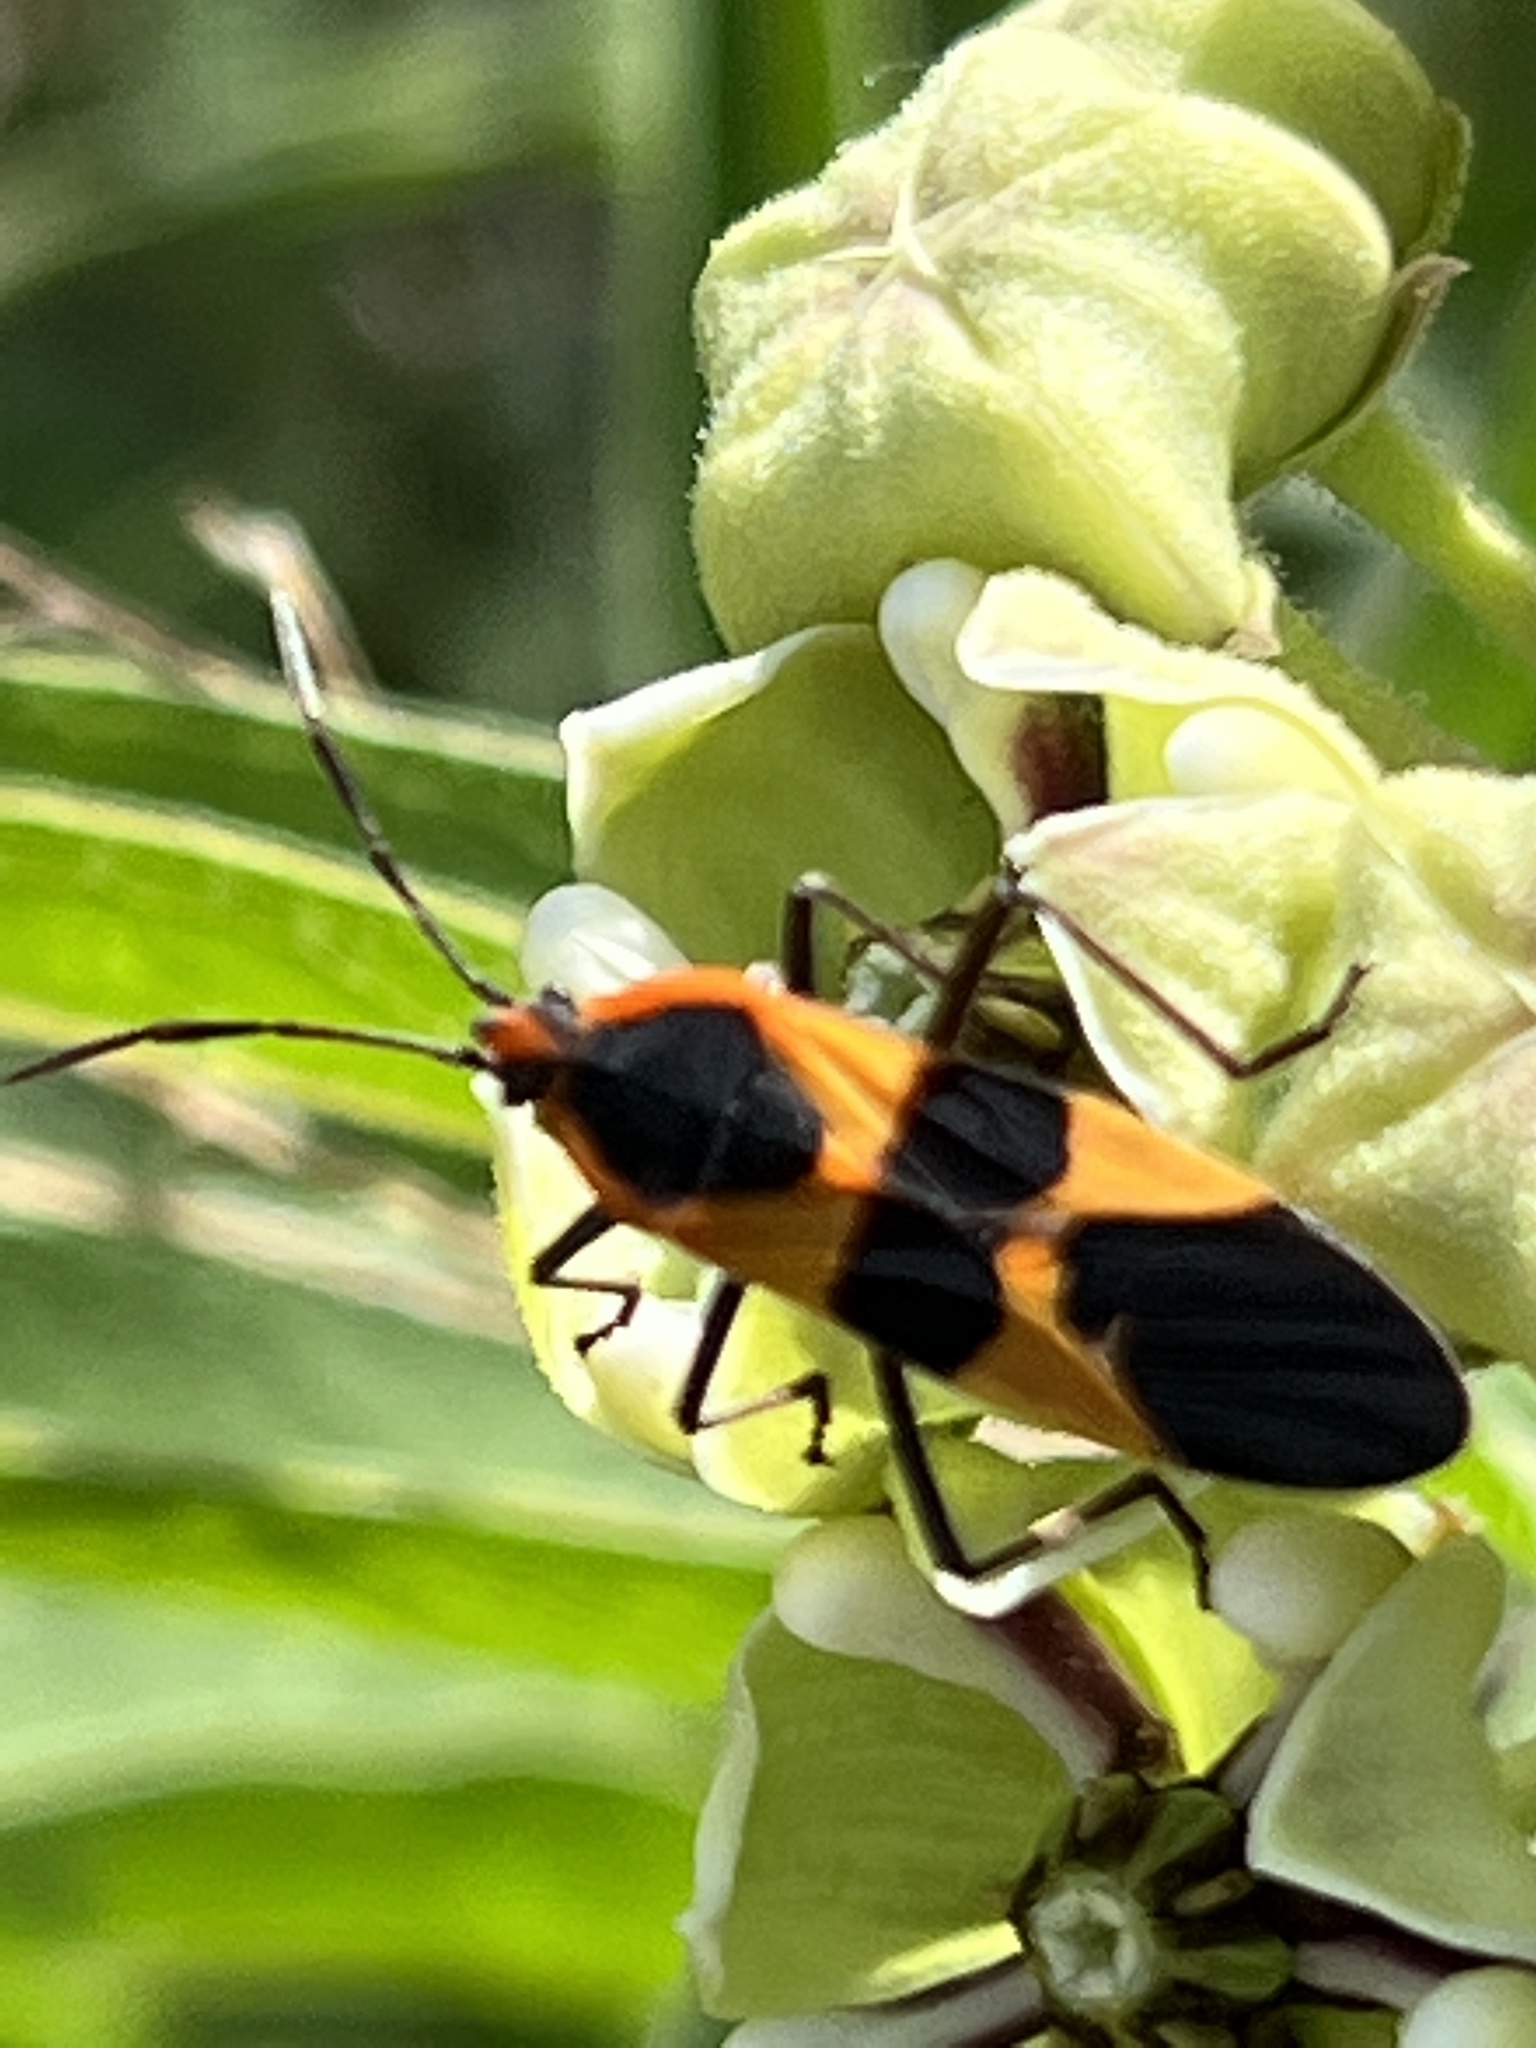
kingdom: Animalia
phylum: Arthropoda
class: Insecta
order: Hemiptera
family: Lygaeidae
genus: Oncopeltus
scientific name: Oncopeltus fasciatus
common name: Large milkweed bug
